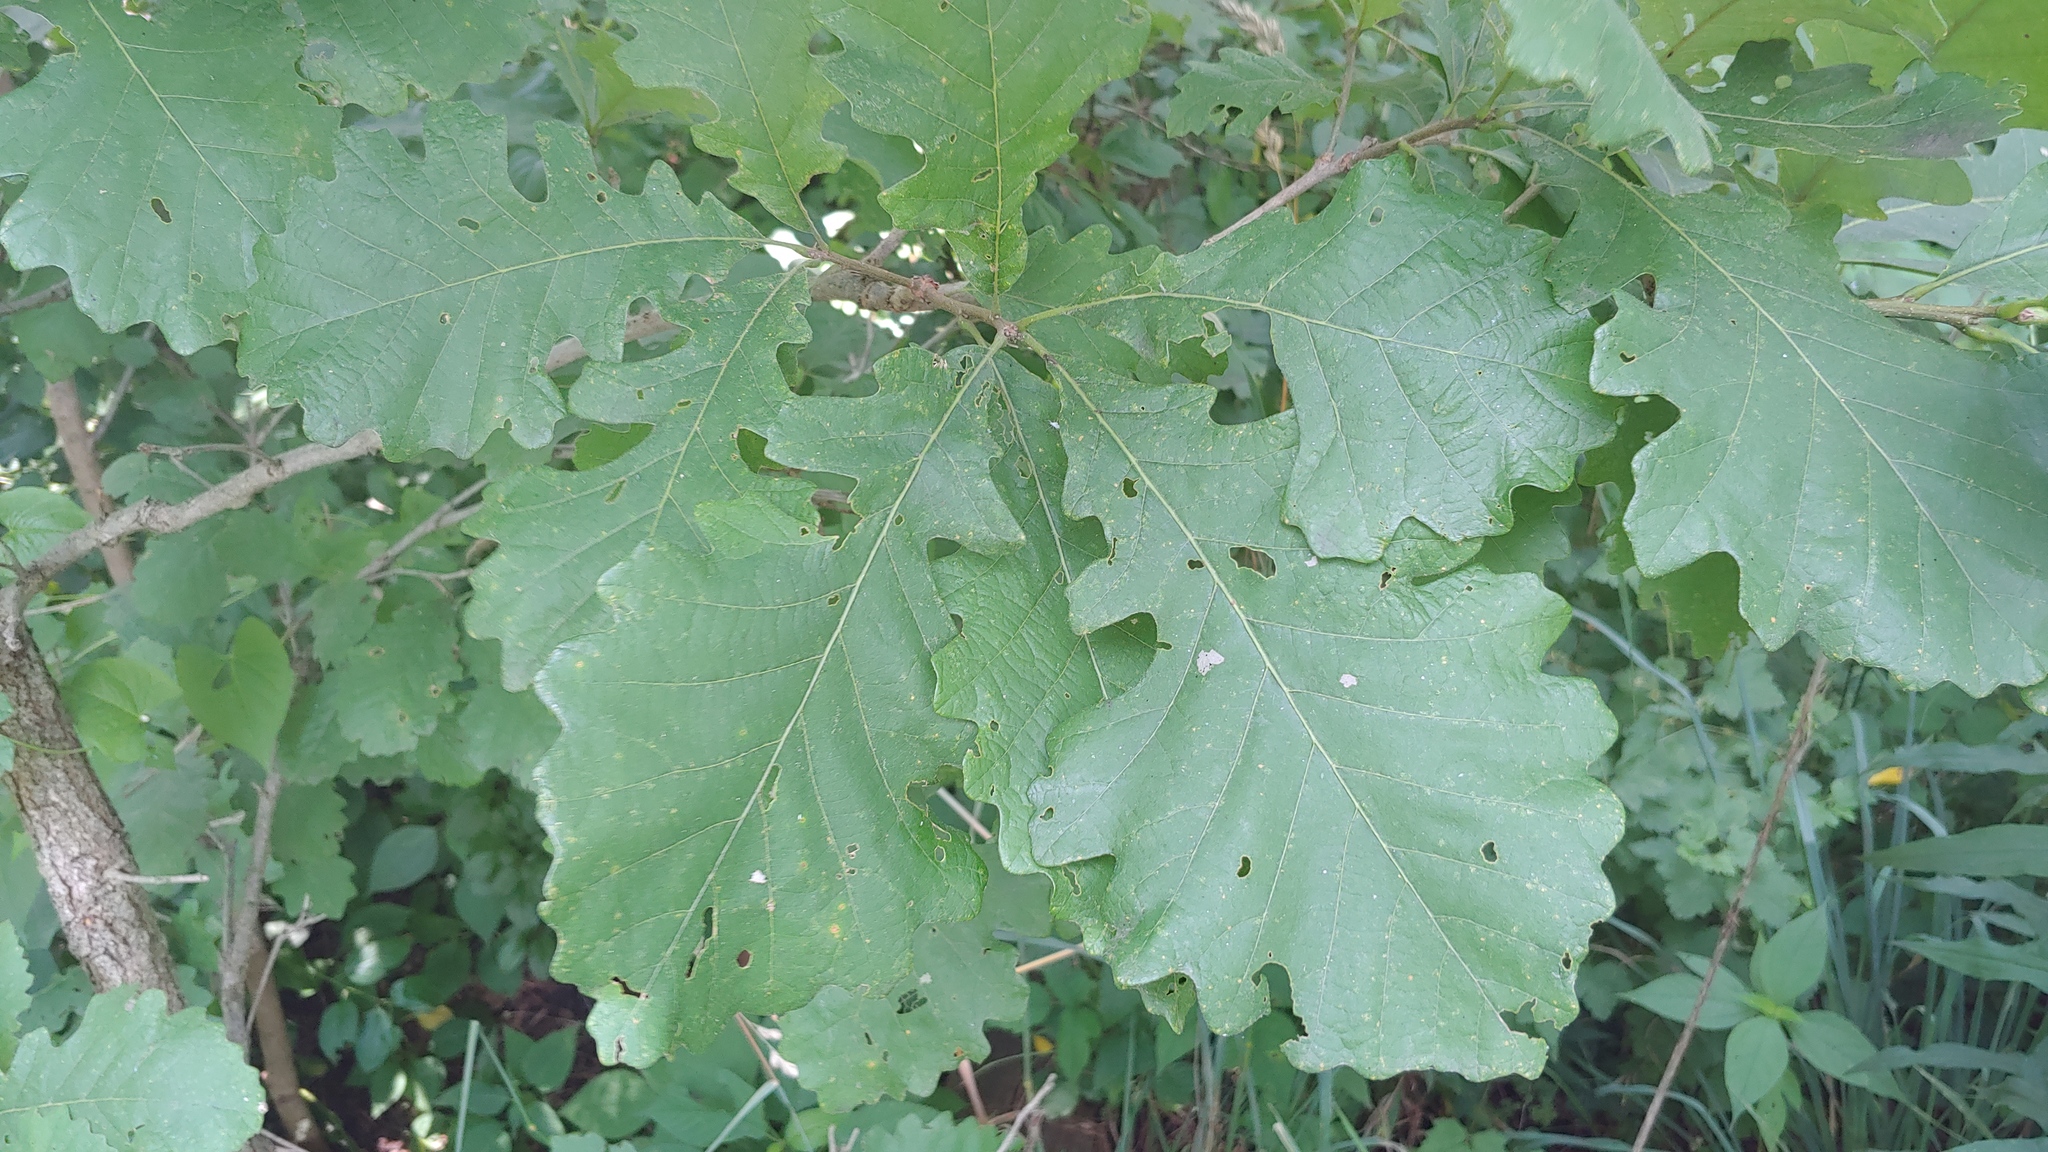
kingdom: Plantae
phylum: Tracheophyta
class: Magnoliopsida
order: Fagales
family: Fagaceae
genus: Quercus
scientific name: Quercus macrocarpa
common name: Bur oak
